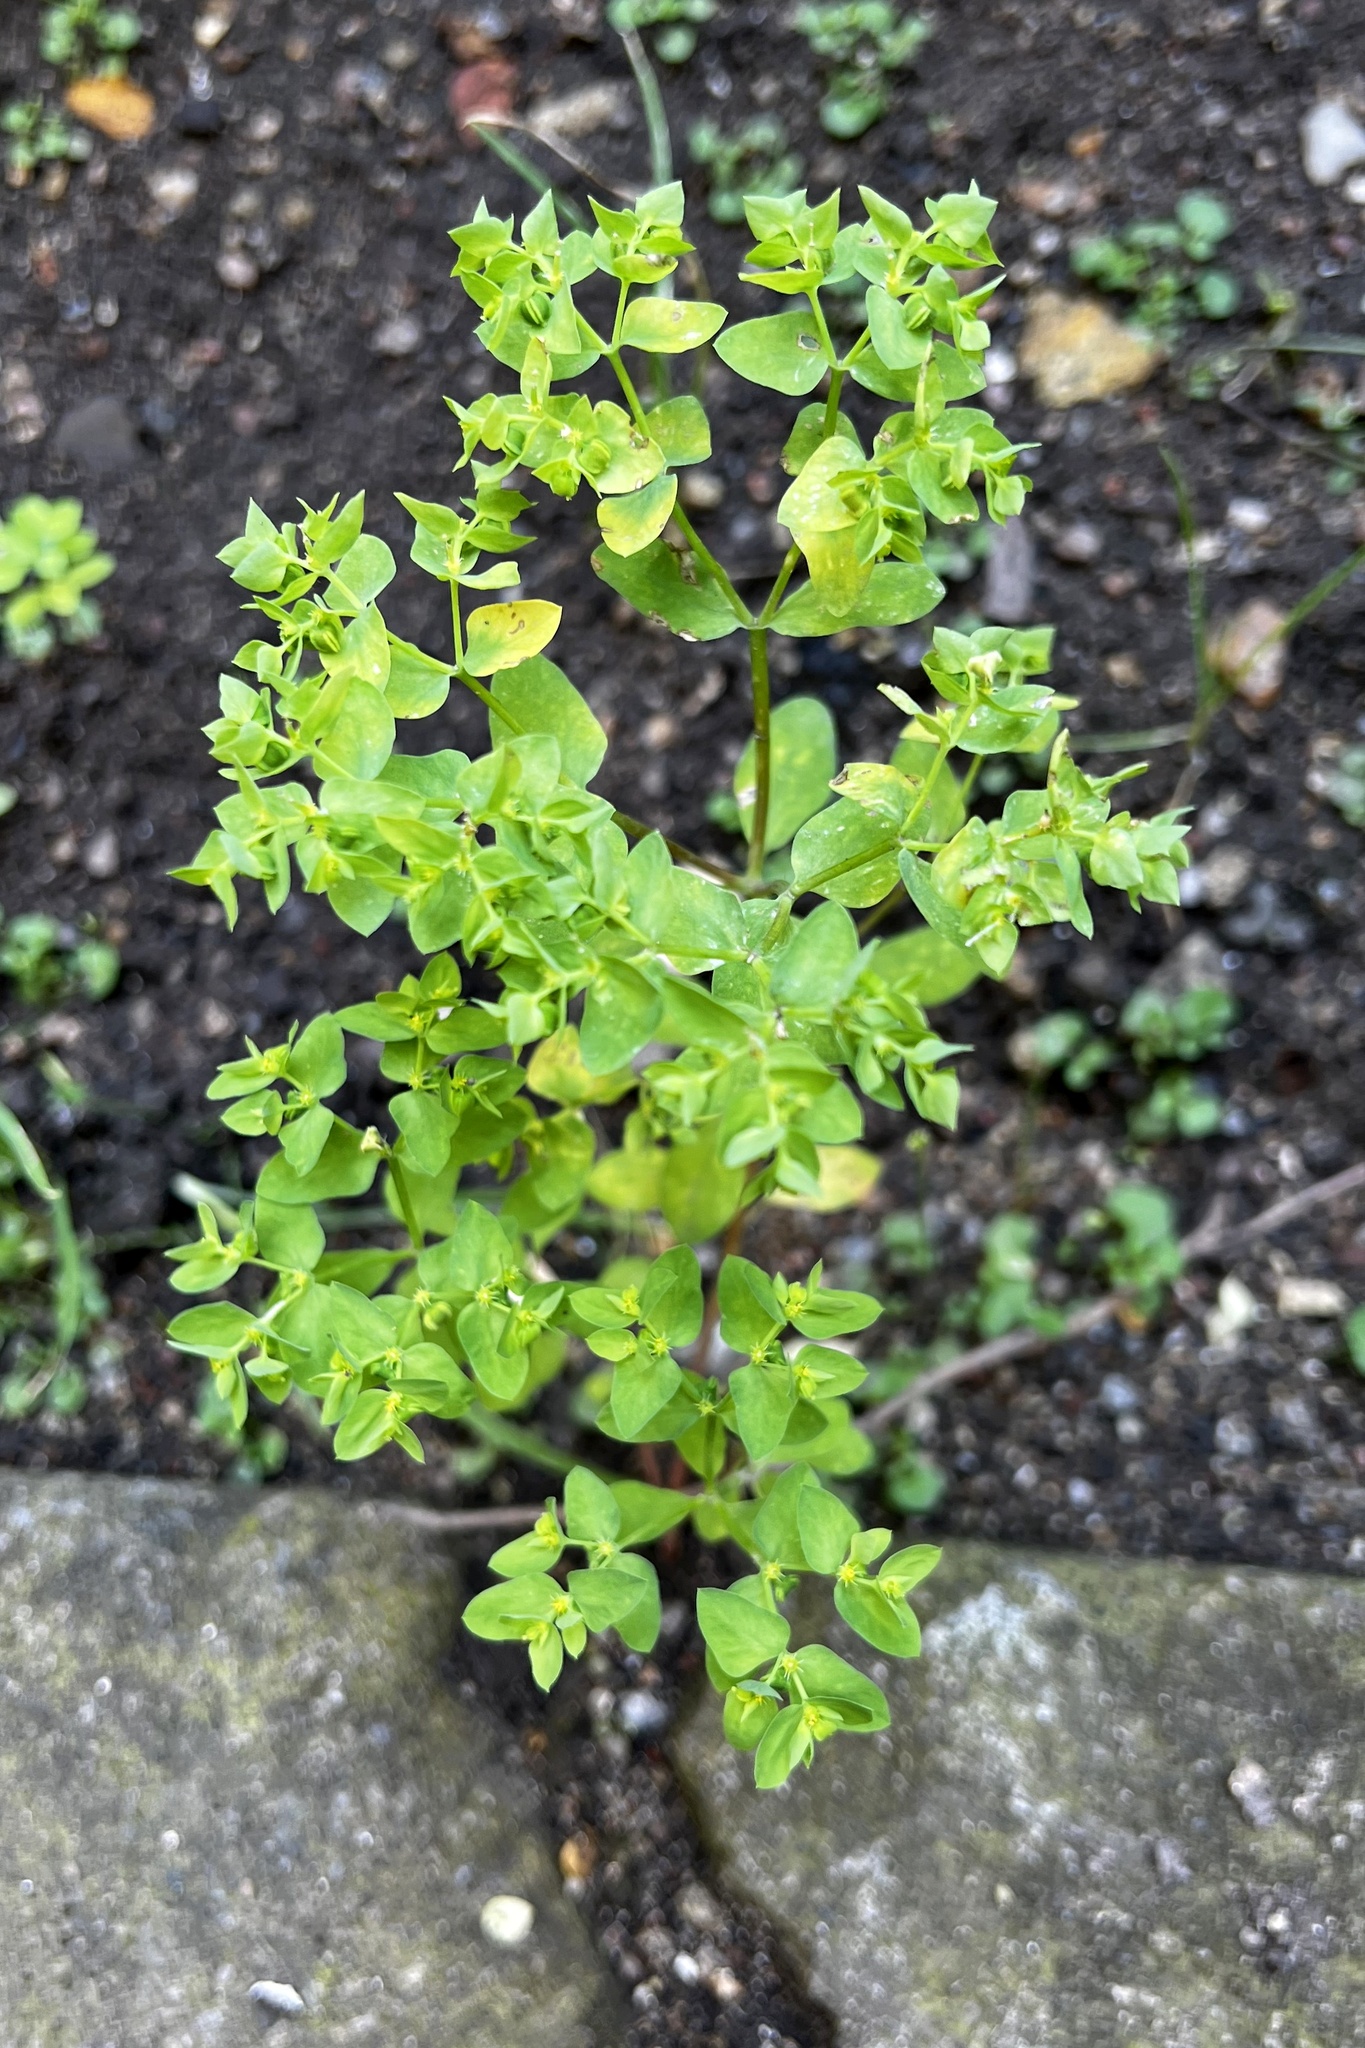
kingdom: Plantae
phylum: Tracheophyta
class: Magnoliopsida
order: Malpighiales
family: Euphorbiaceae
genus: Euphorbia
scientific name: Euphorbia peplus
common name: Petty spurge
